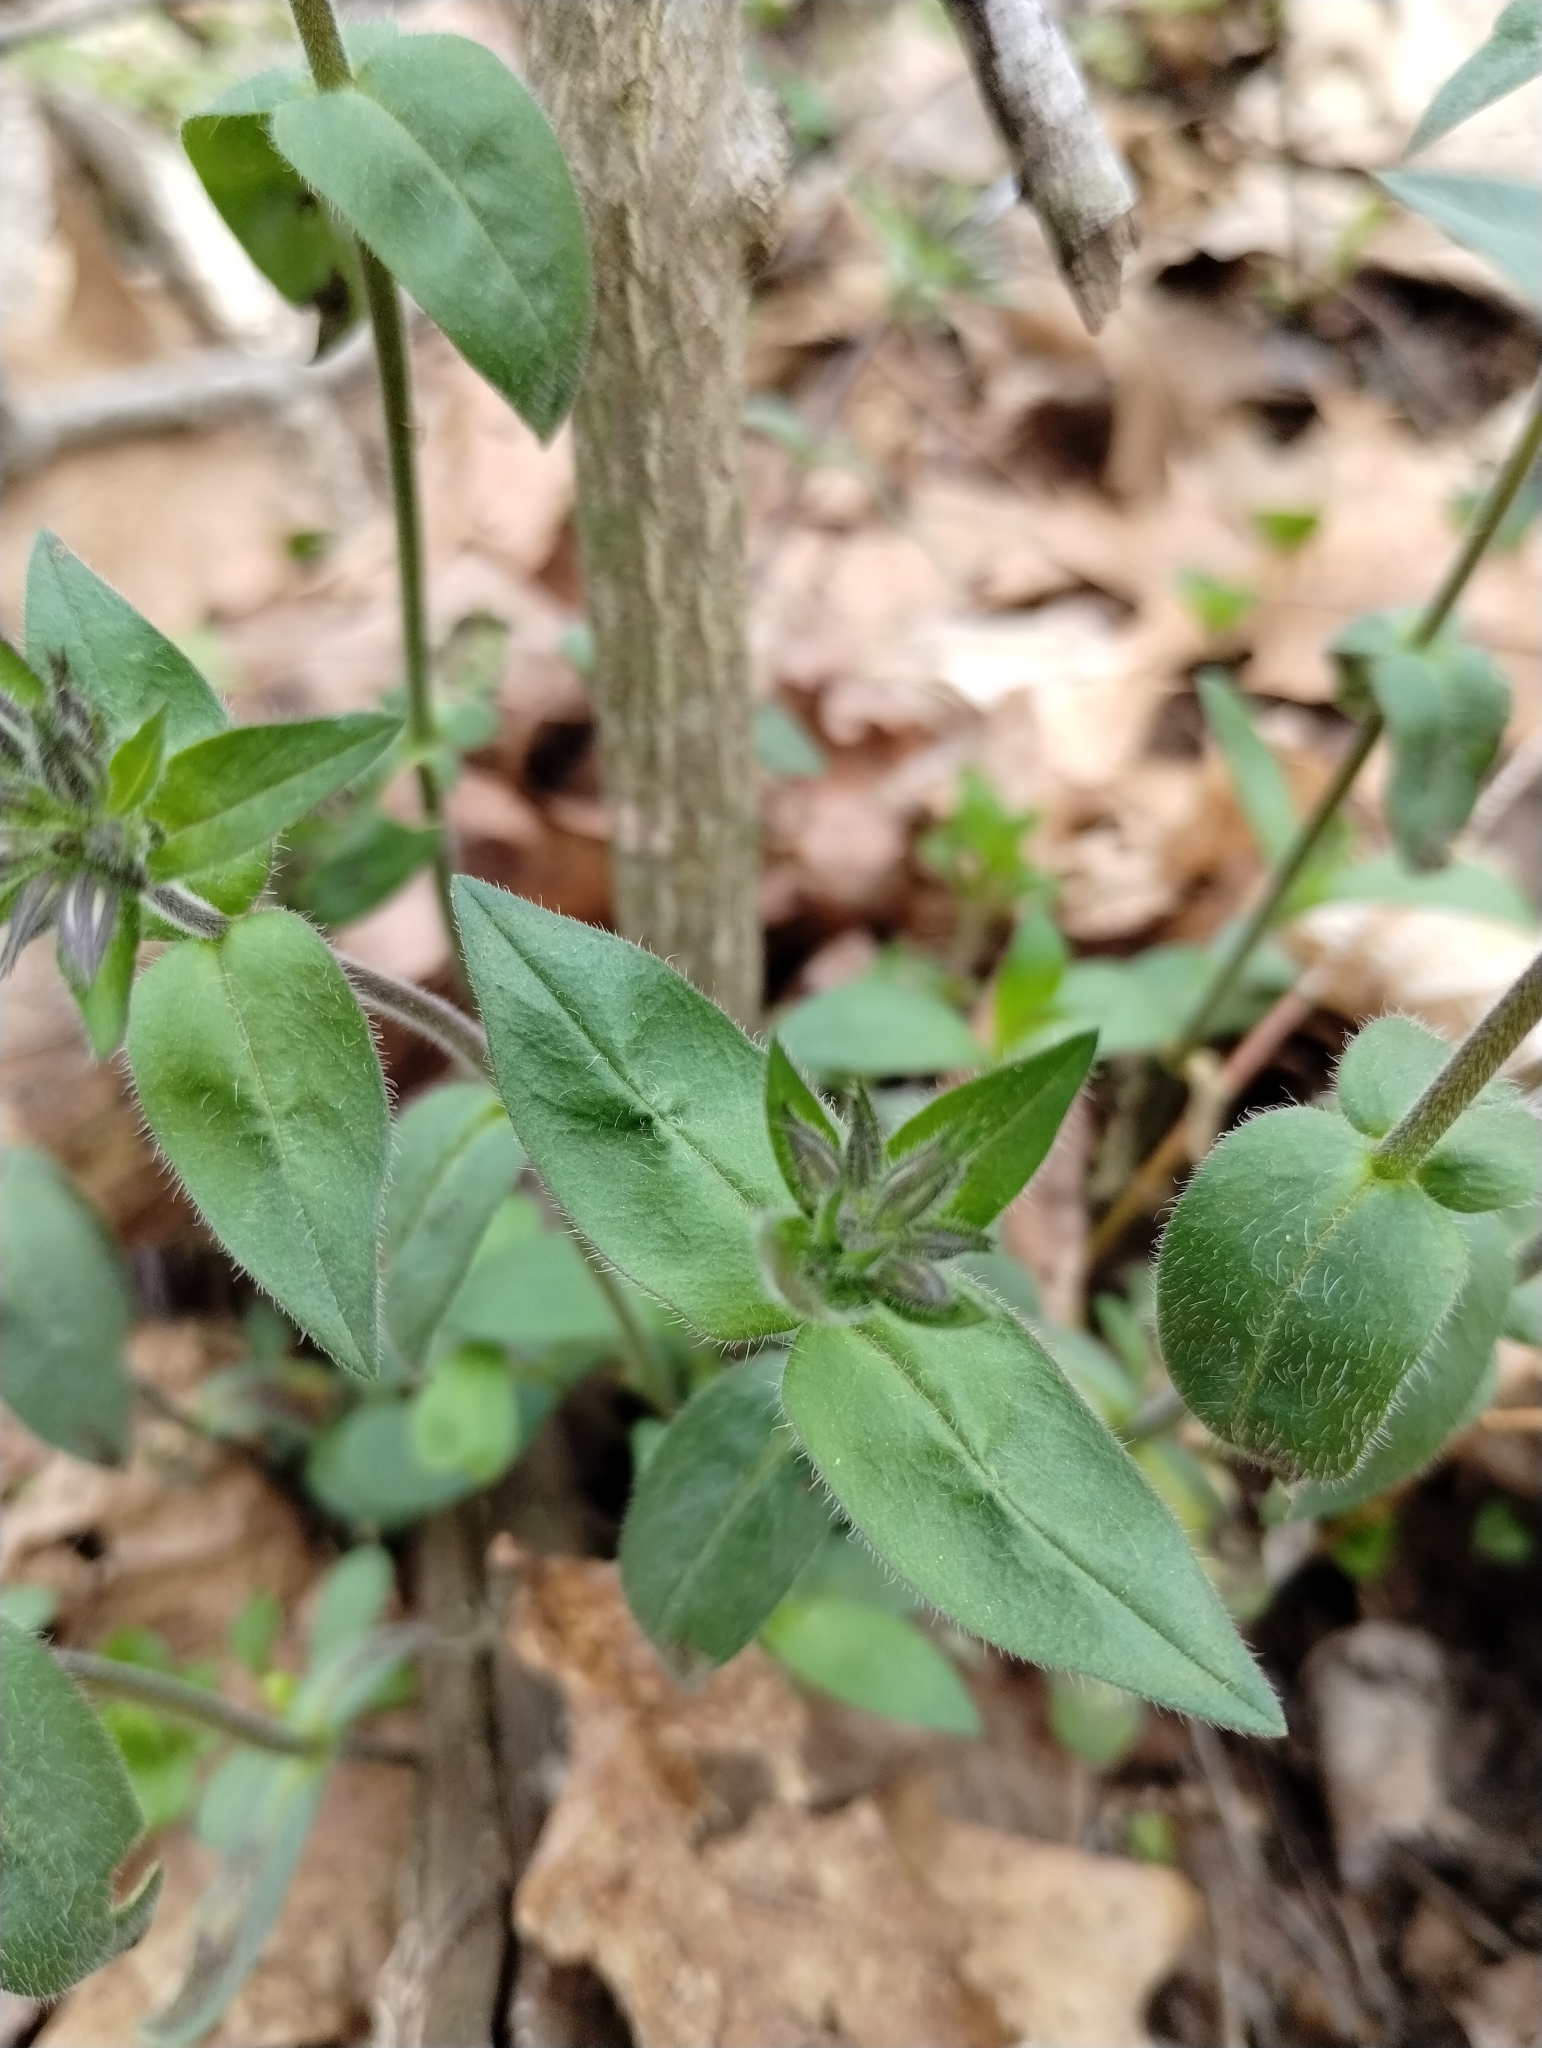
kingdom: Plantae
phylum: Tracheophyta
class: Magnoliopsida
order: Ericales
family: Polemoniaceae
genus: Phlox
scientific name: Phlox divaricata
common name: Blue phlox
